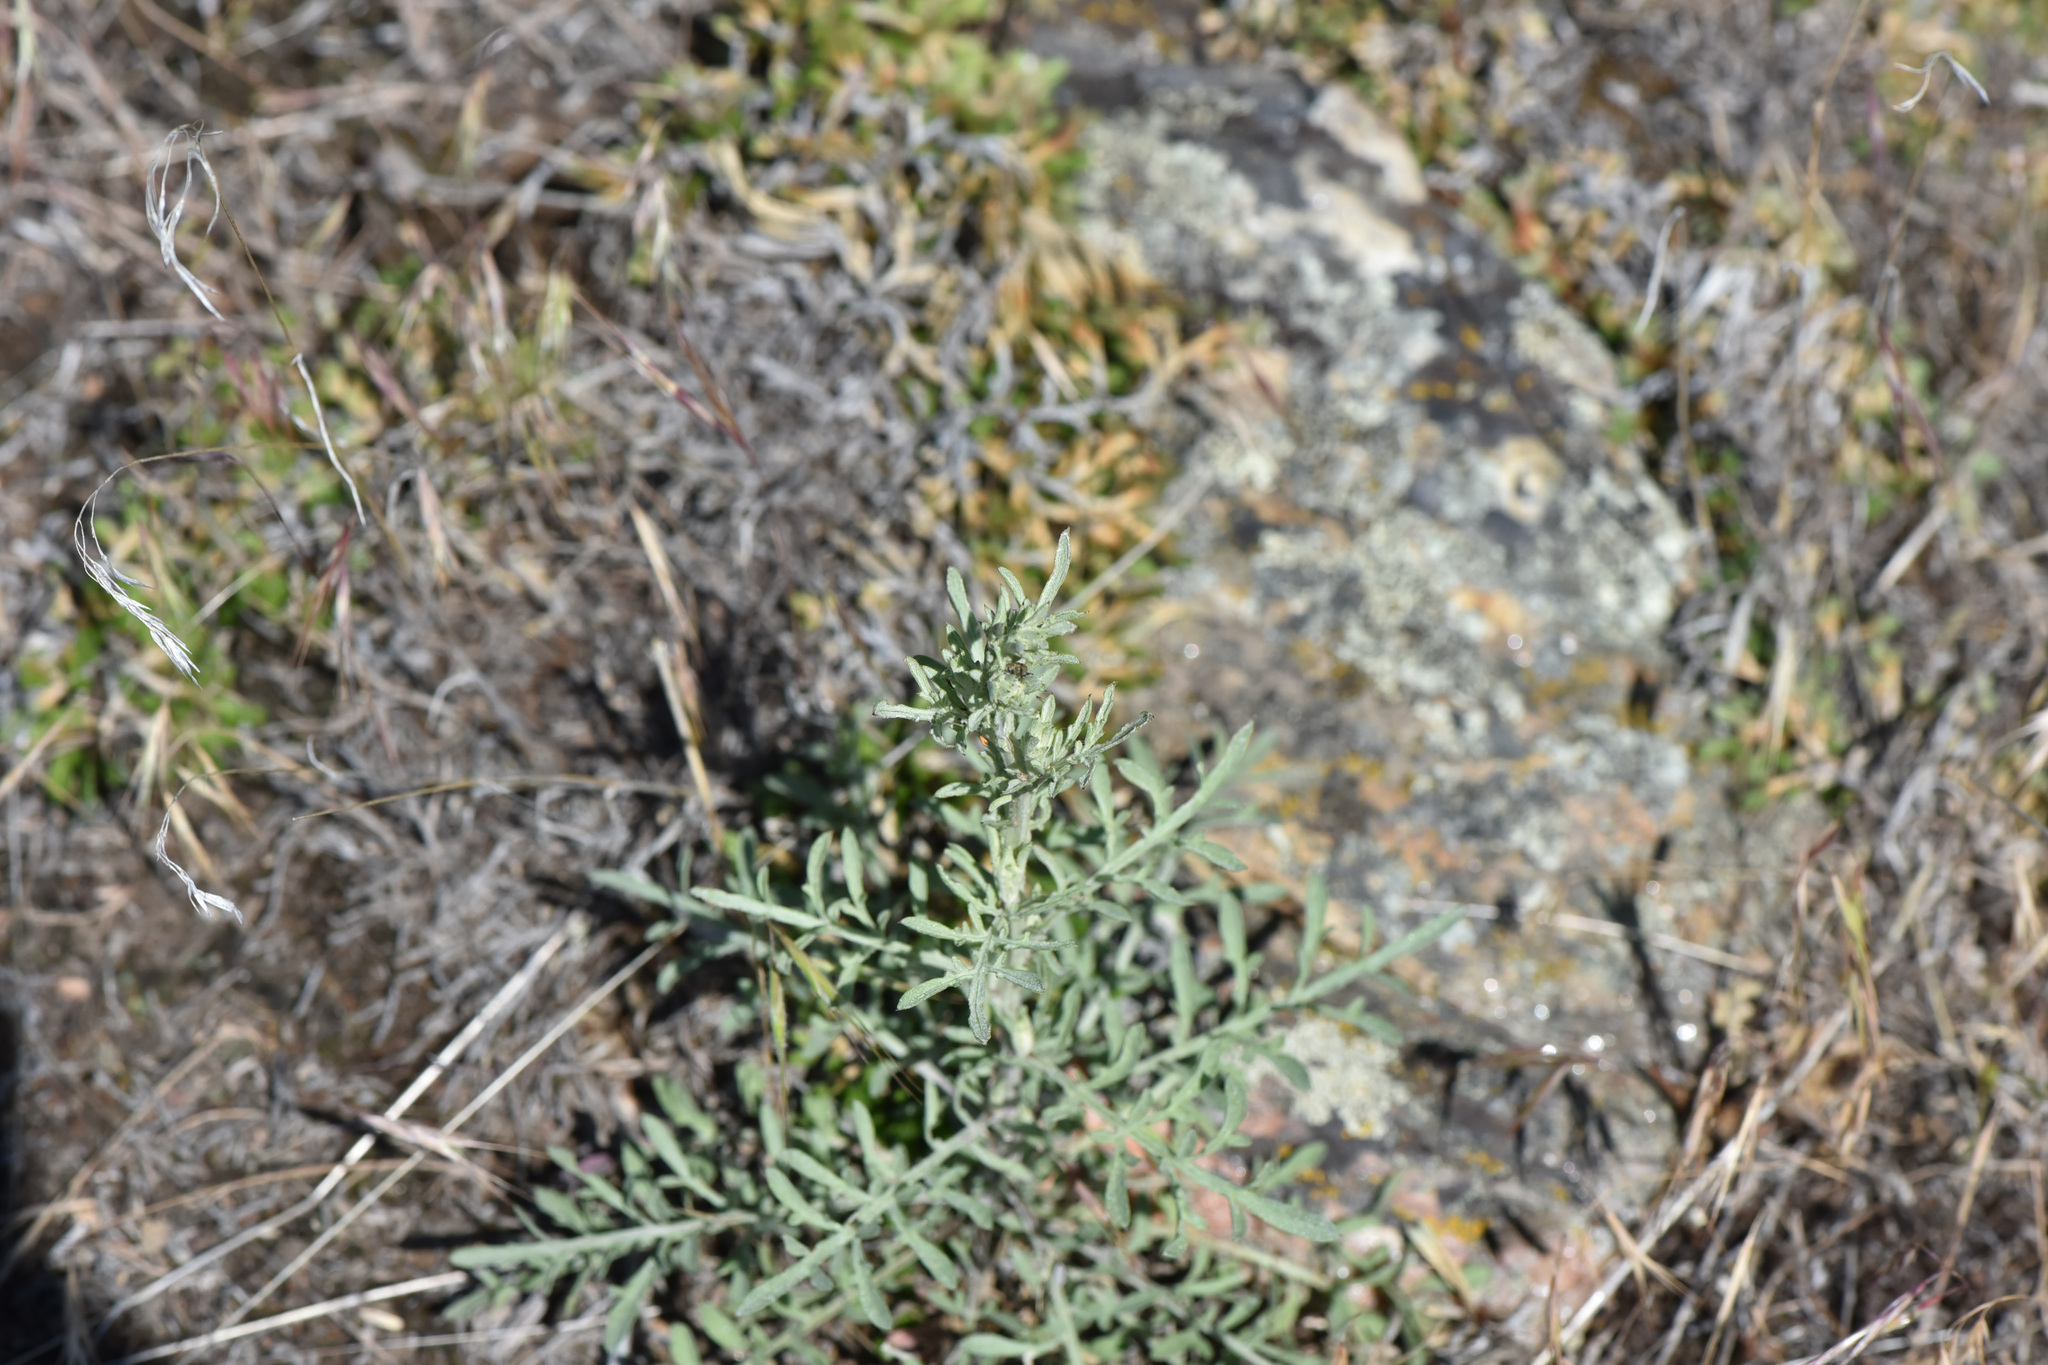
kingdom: Plantae
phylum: Tracheophyta
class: Magnoliopsida
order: Asterales
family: Asteraceae
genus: Centaurea
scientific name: Centaurea diffusa
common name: Diffuse knapweed
